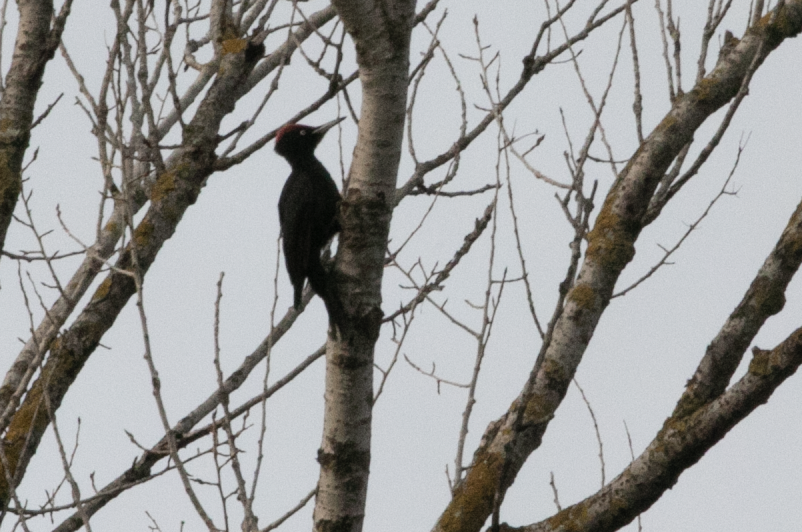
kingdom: Animalia
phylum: Chordata
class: Aves
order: Piciformes
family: Picidae
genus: Dryocopus
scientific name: Dryocopus martius
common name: Black woodpecker
